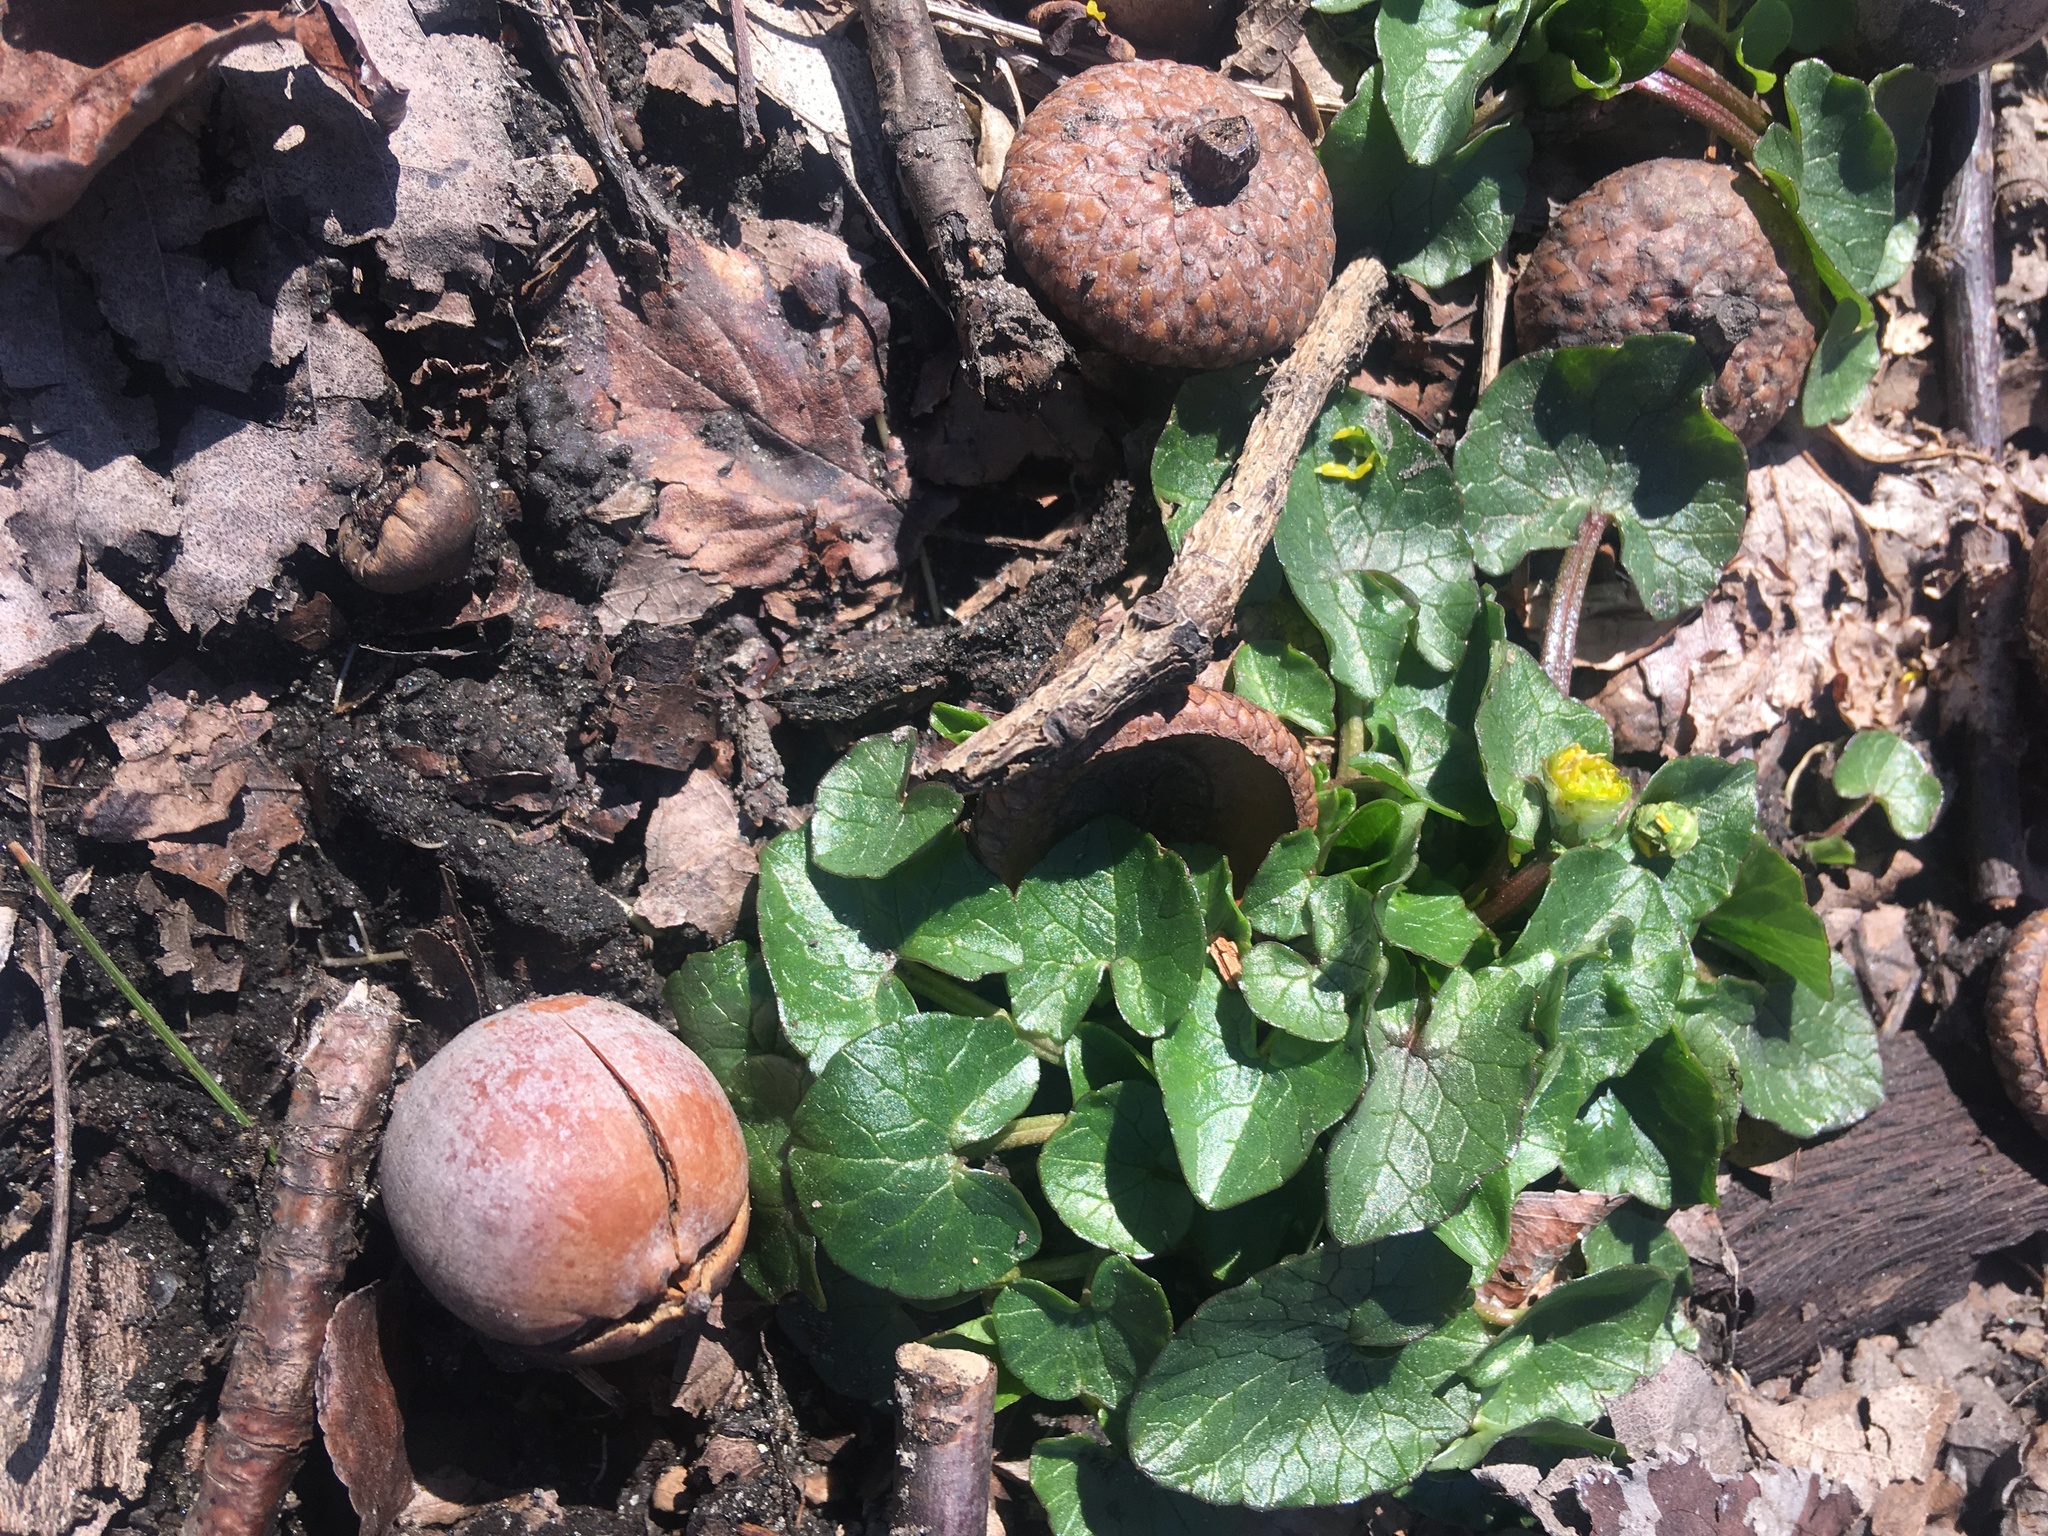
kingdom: Plantae
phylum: Tracheophyta
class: Magnoliopsida
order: Ranunculales
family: Ranunculaceae
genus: Ficaria
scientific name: Ficaria verna
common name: Lesser celandine
